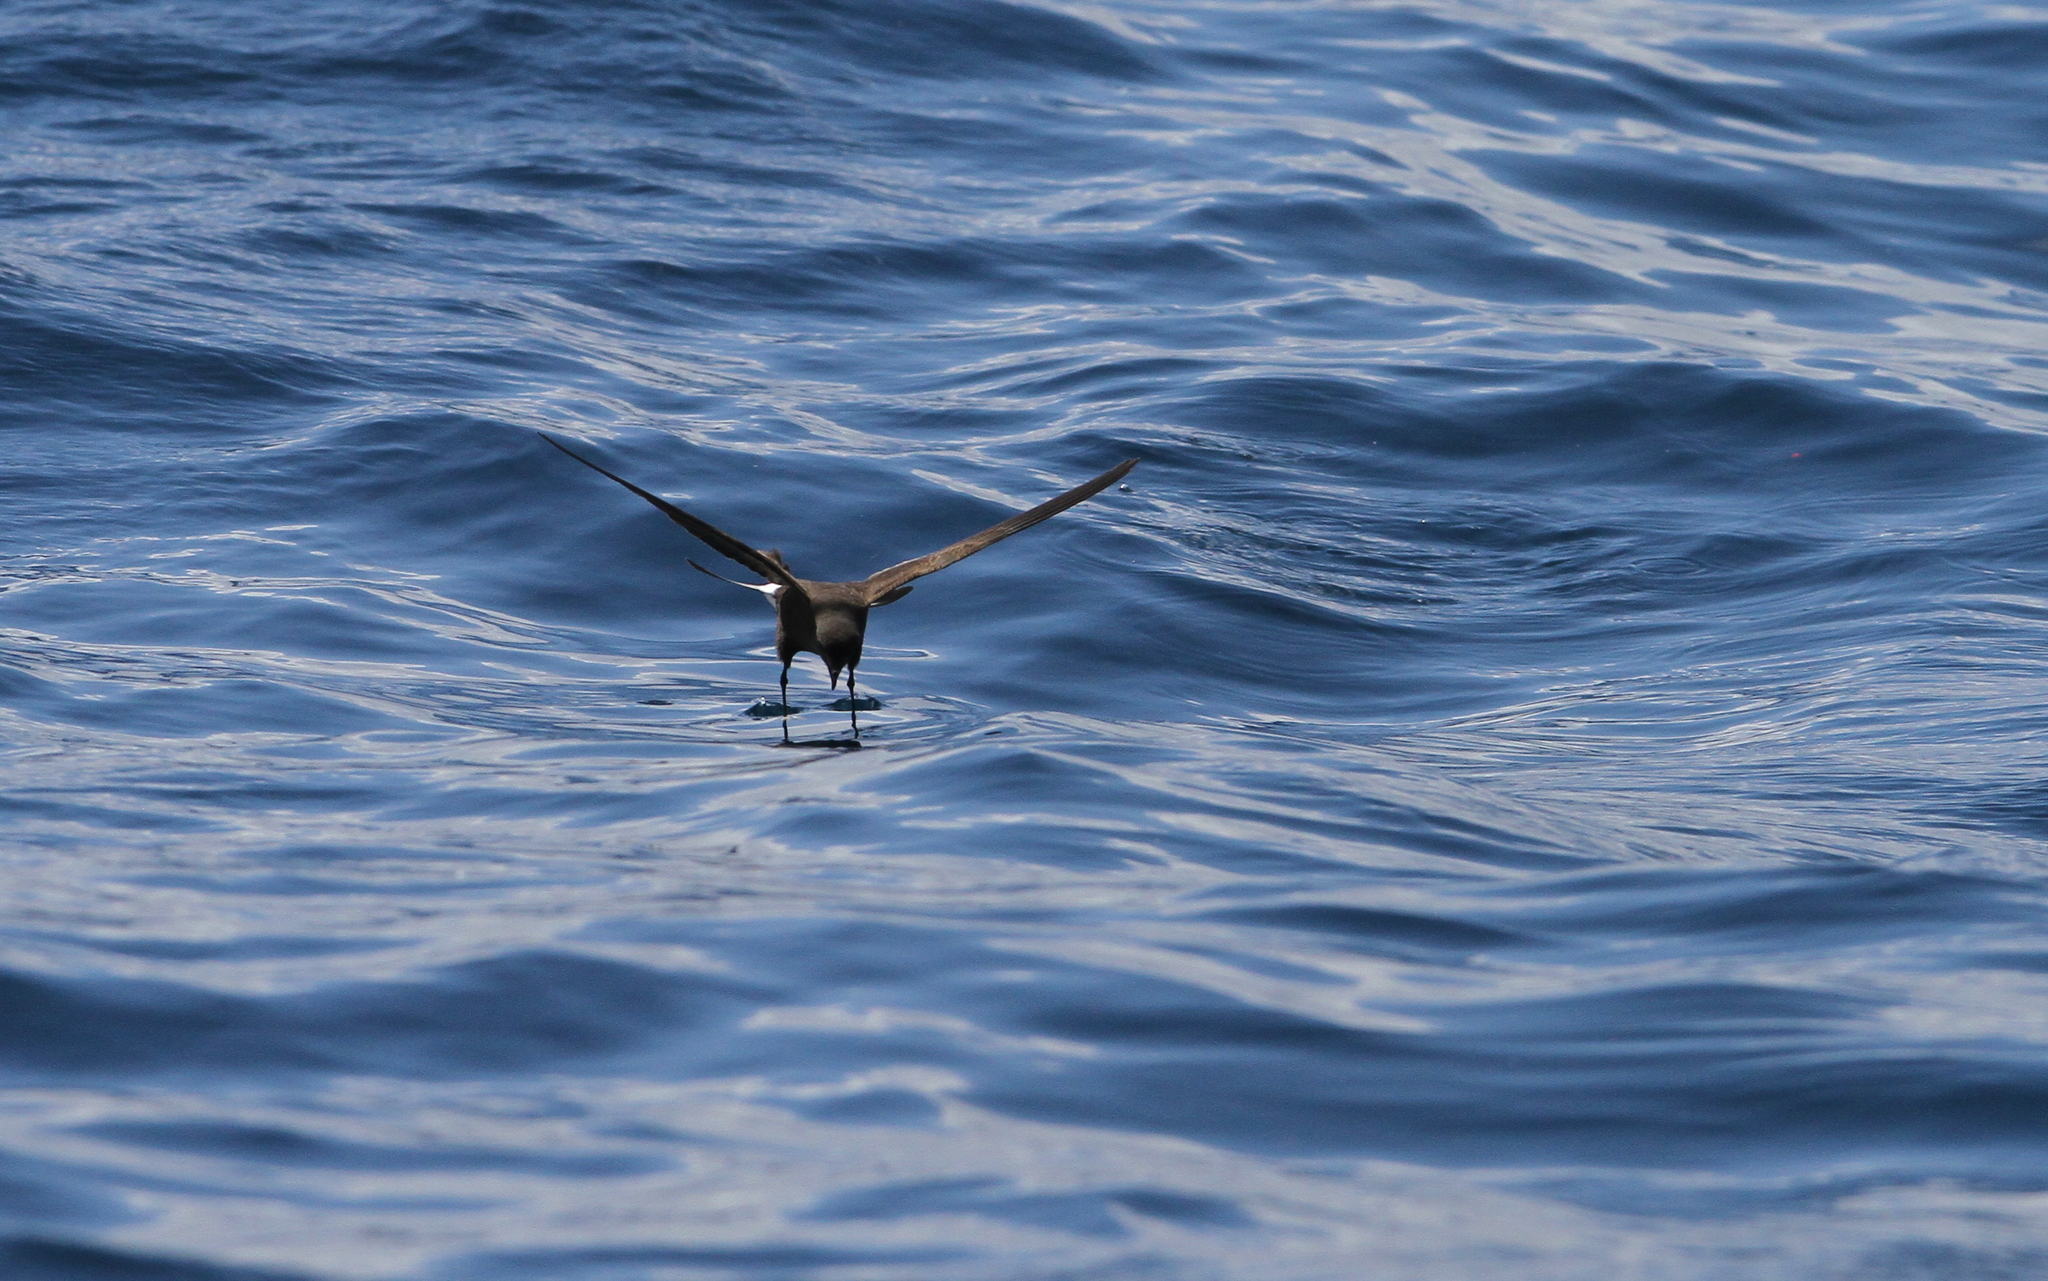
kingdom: Animalia
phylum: Chordata
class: Aves
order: Procellariiformes
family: Hydrobatidae
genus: Oceanites
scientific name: Oceanites oceanicus
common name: Wilson's storm petrel
